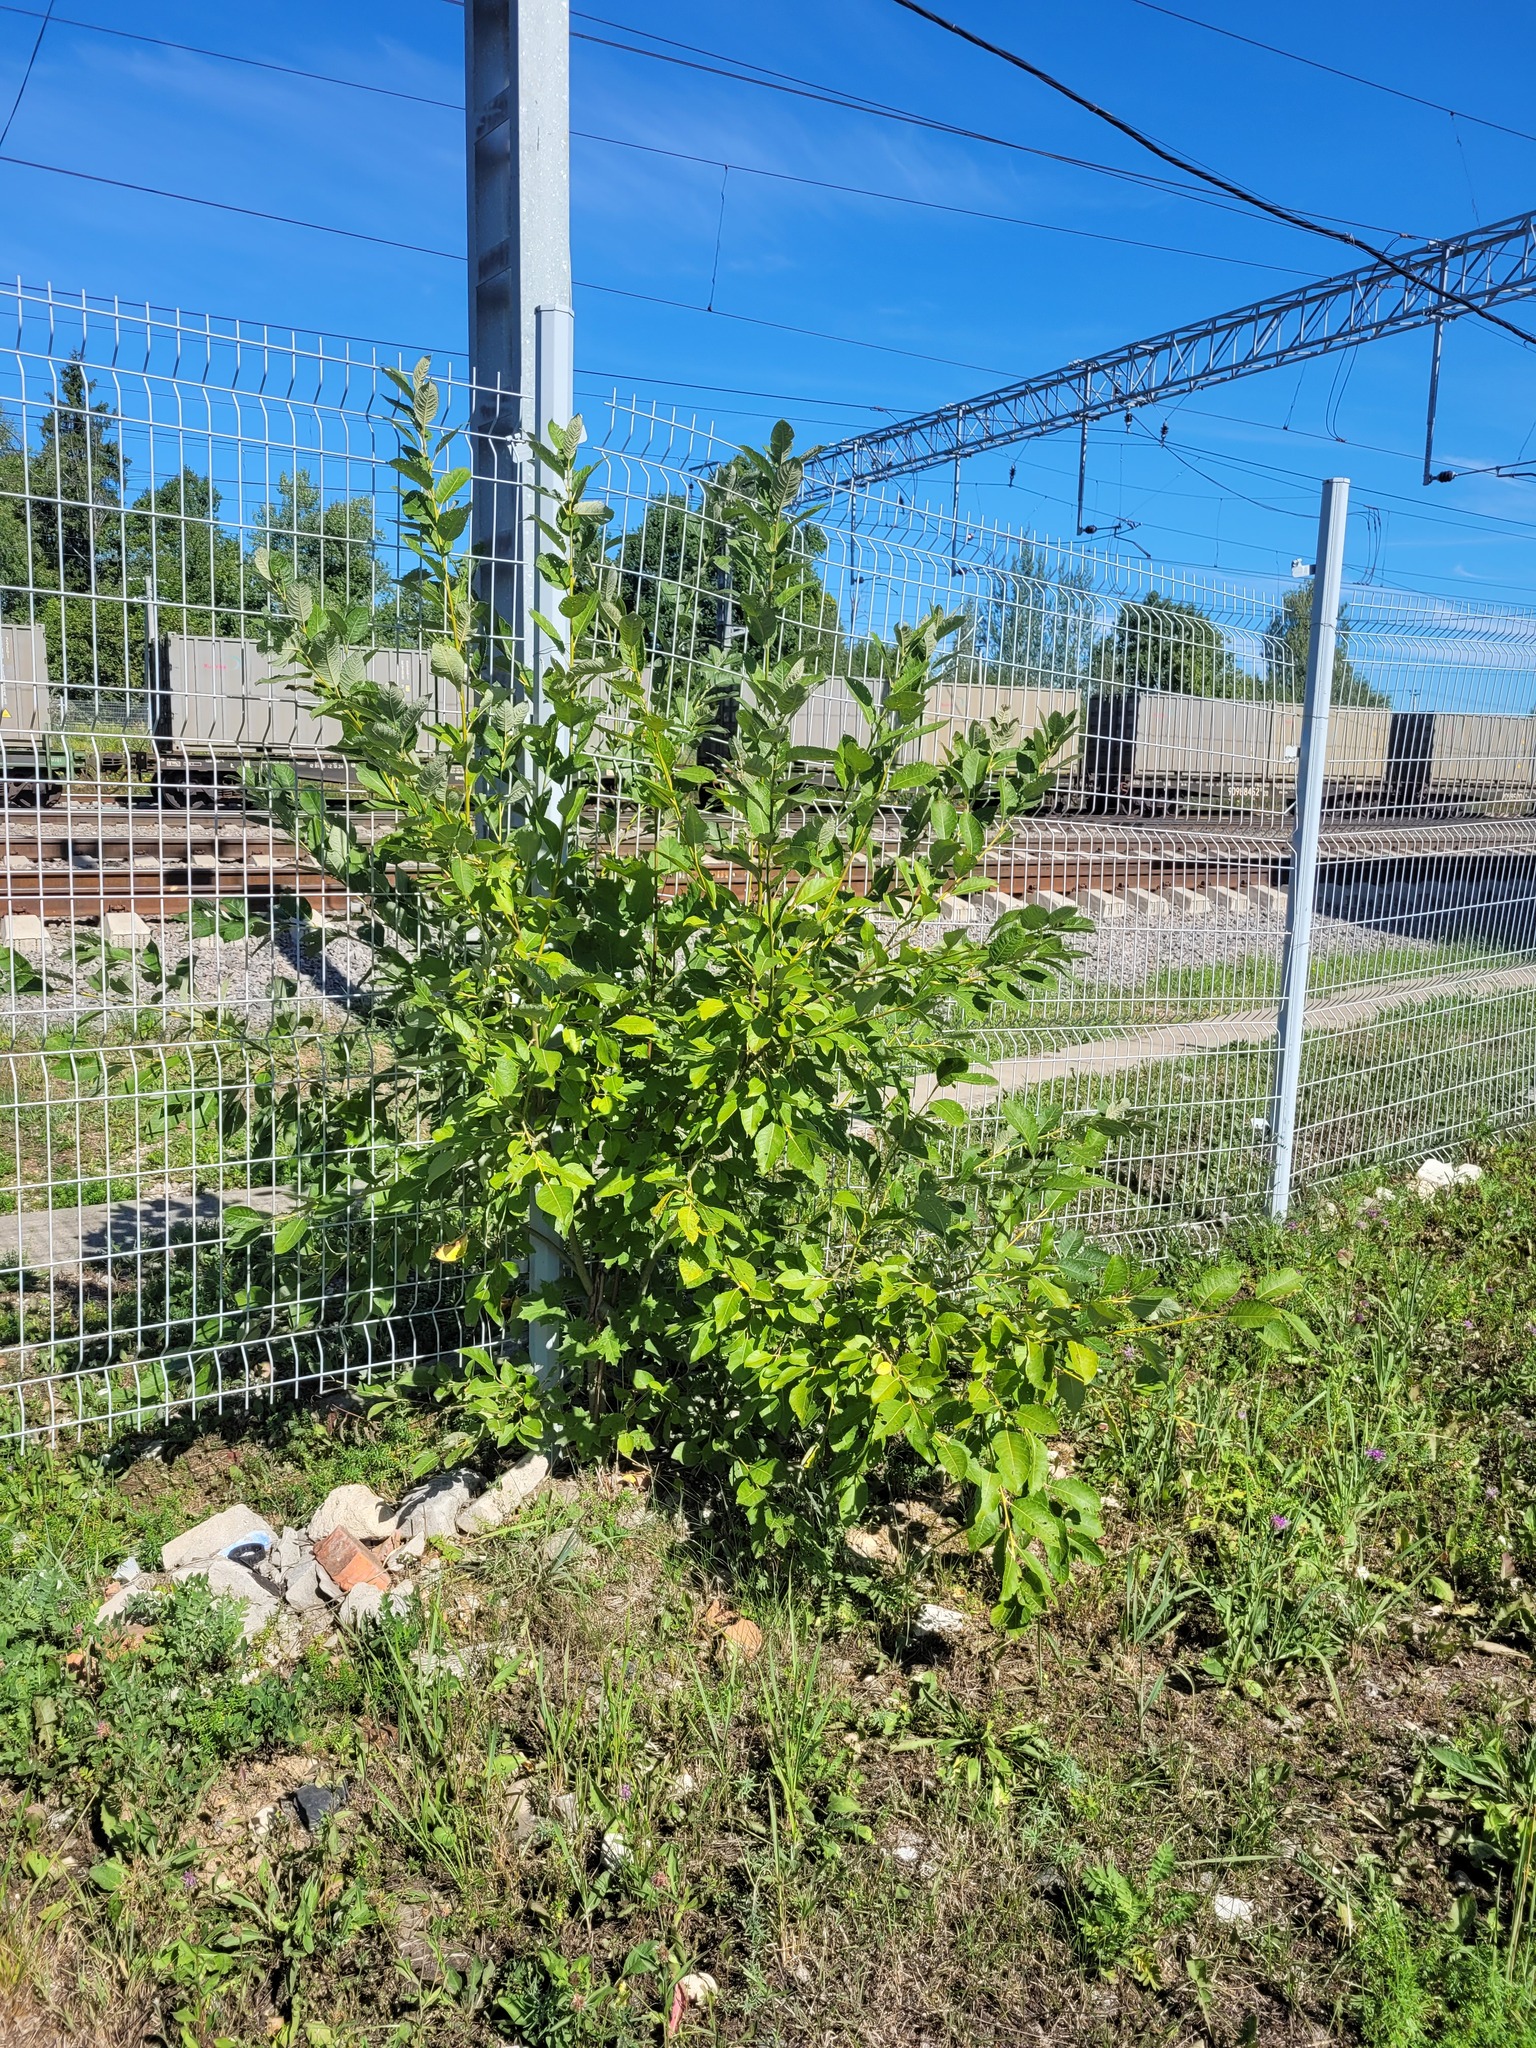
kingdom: Plantae
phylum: Tracheophyta
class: Magnoliopsida
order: Malpighiales
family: Salicaceae
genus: Salix
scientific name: Salix caprea
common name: Goat willow
